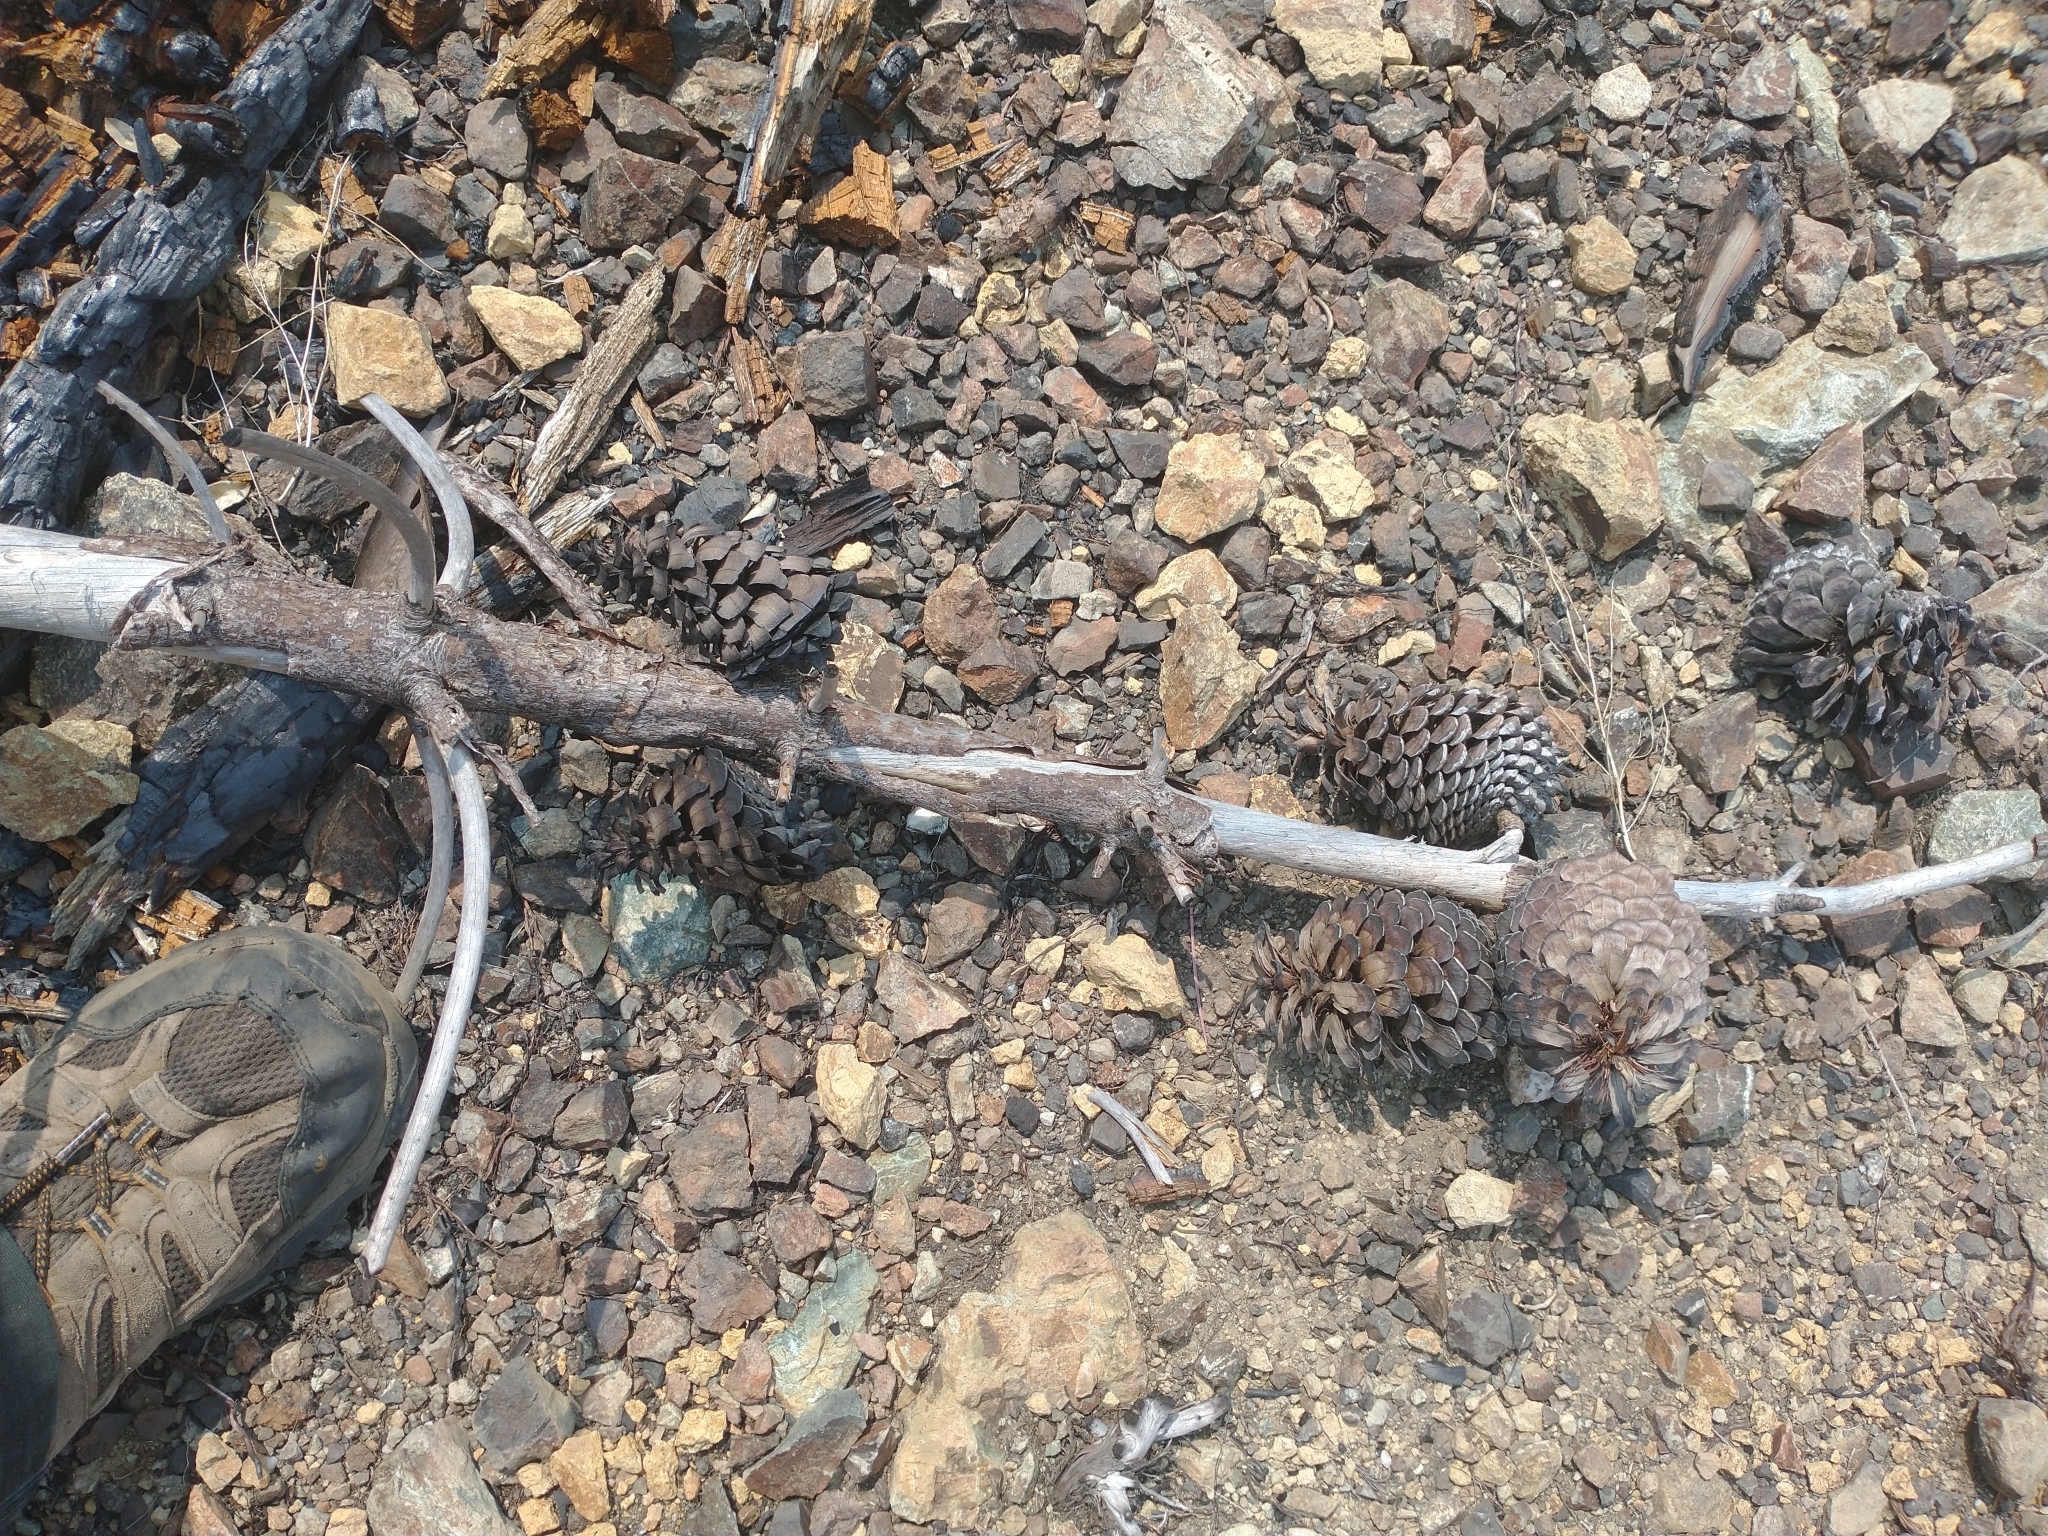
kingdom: Plantae
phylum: Tracheophyta
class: Pinopsida
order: Pinales
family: Pinaceae
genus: Pinus
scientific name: Pinus attenuata
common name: Knobcone pine
